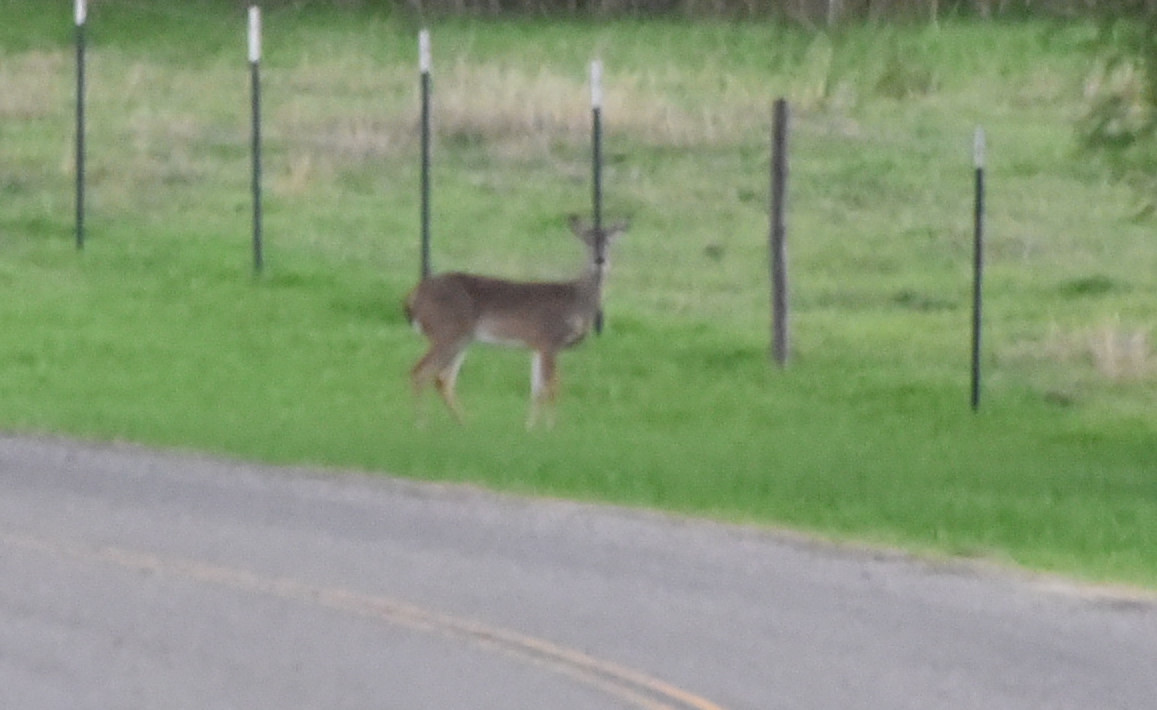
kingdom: Animalia
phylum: Chordata
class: Mammalia
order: Artiodactyla
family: Cervidae
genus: Odocoileus
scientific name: Odocoileus virginianus
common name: White-tailed deer
